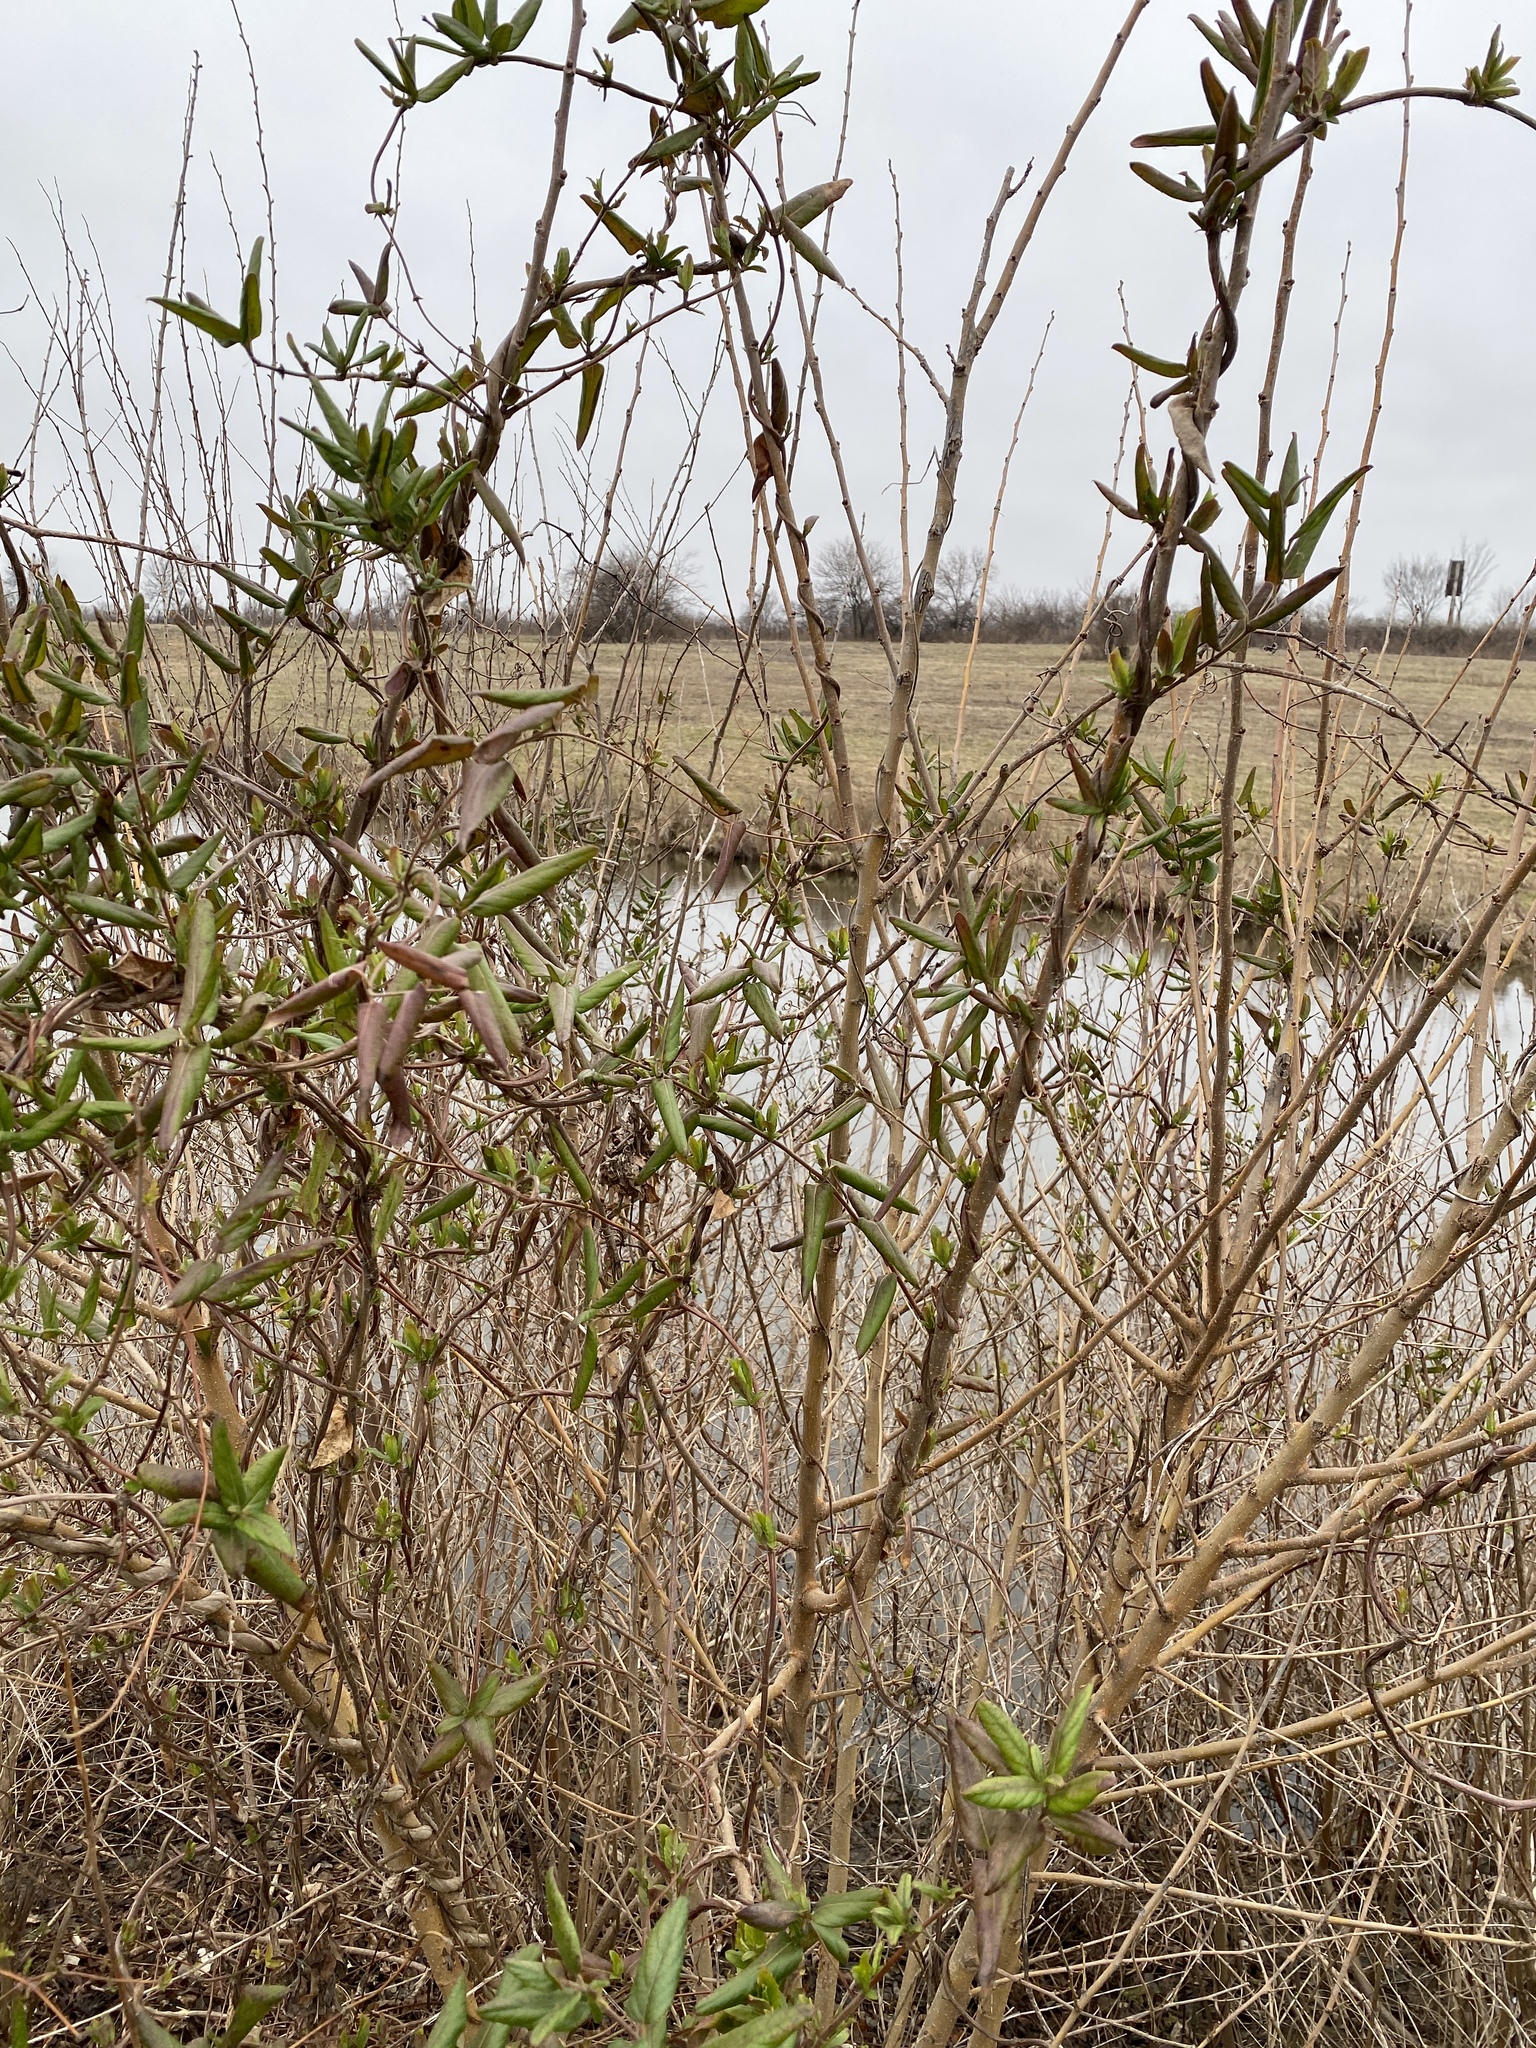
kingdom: Plantae
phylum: Tracheophyta
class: Magnoliopsida
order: Dipsacales
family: Caprifoliaceae
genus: Lonicera
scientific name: Lonicera japonica
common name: Japanese honeysuckle
